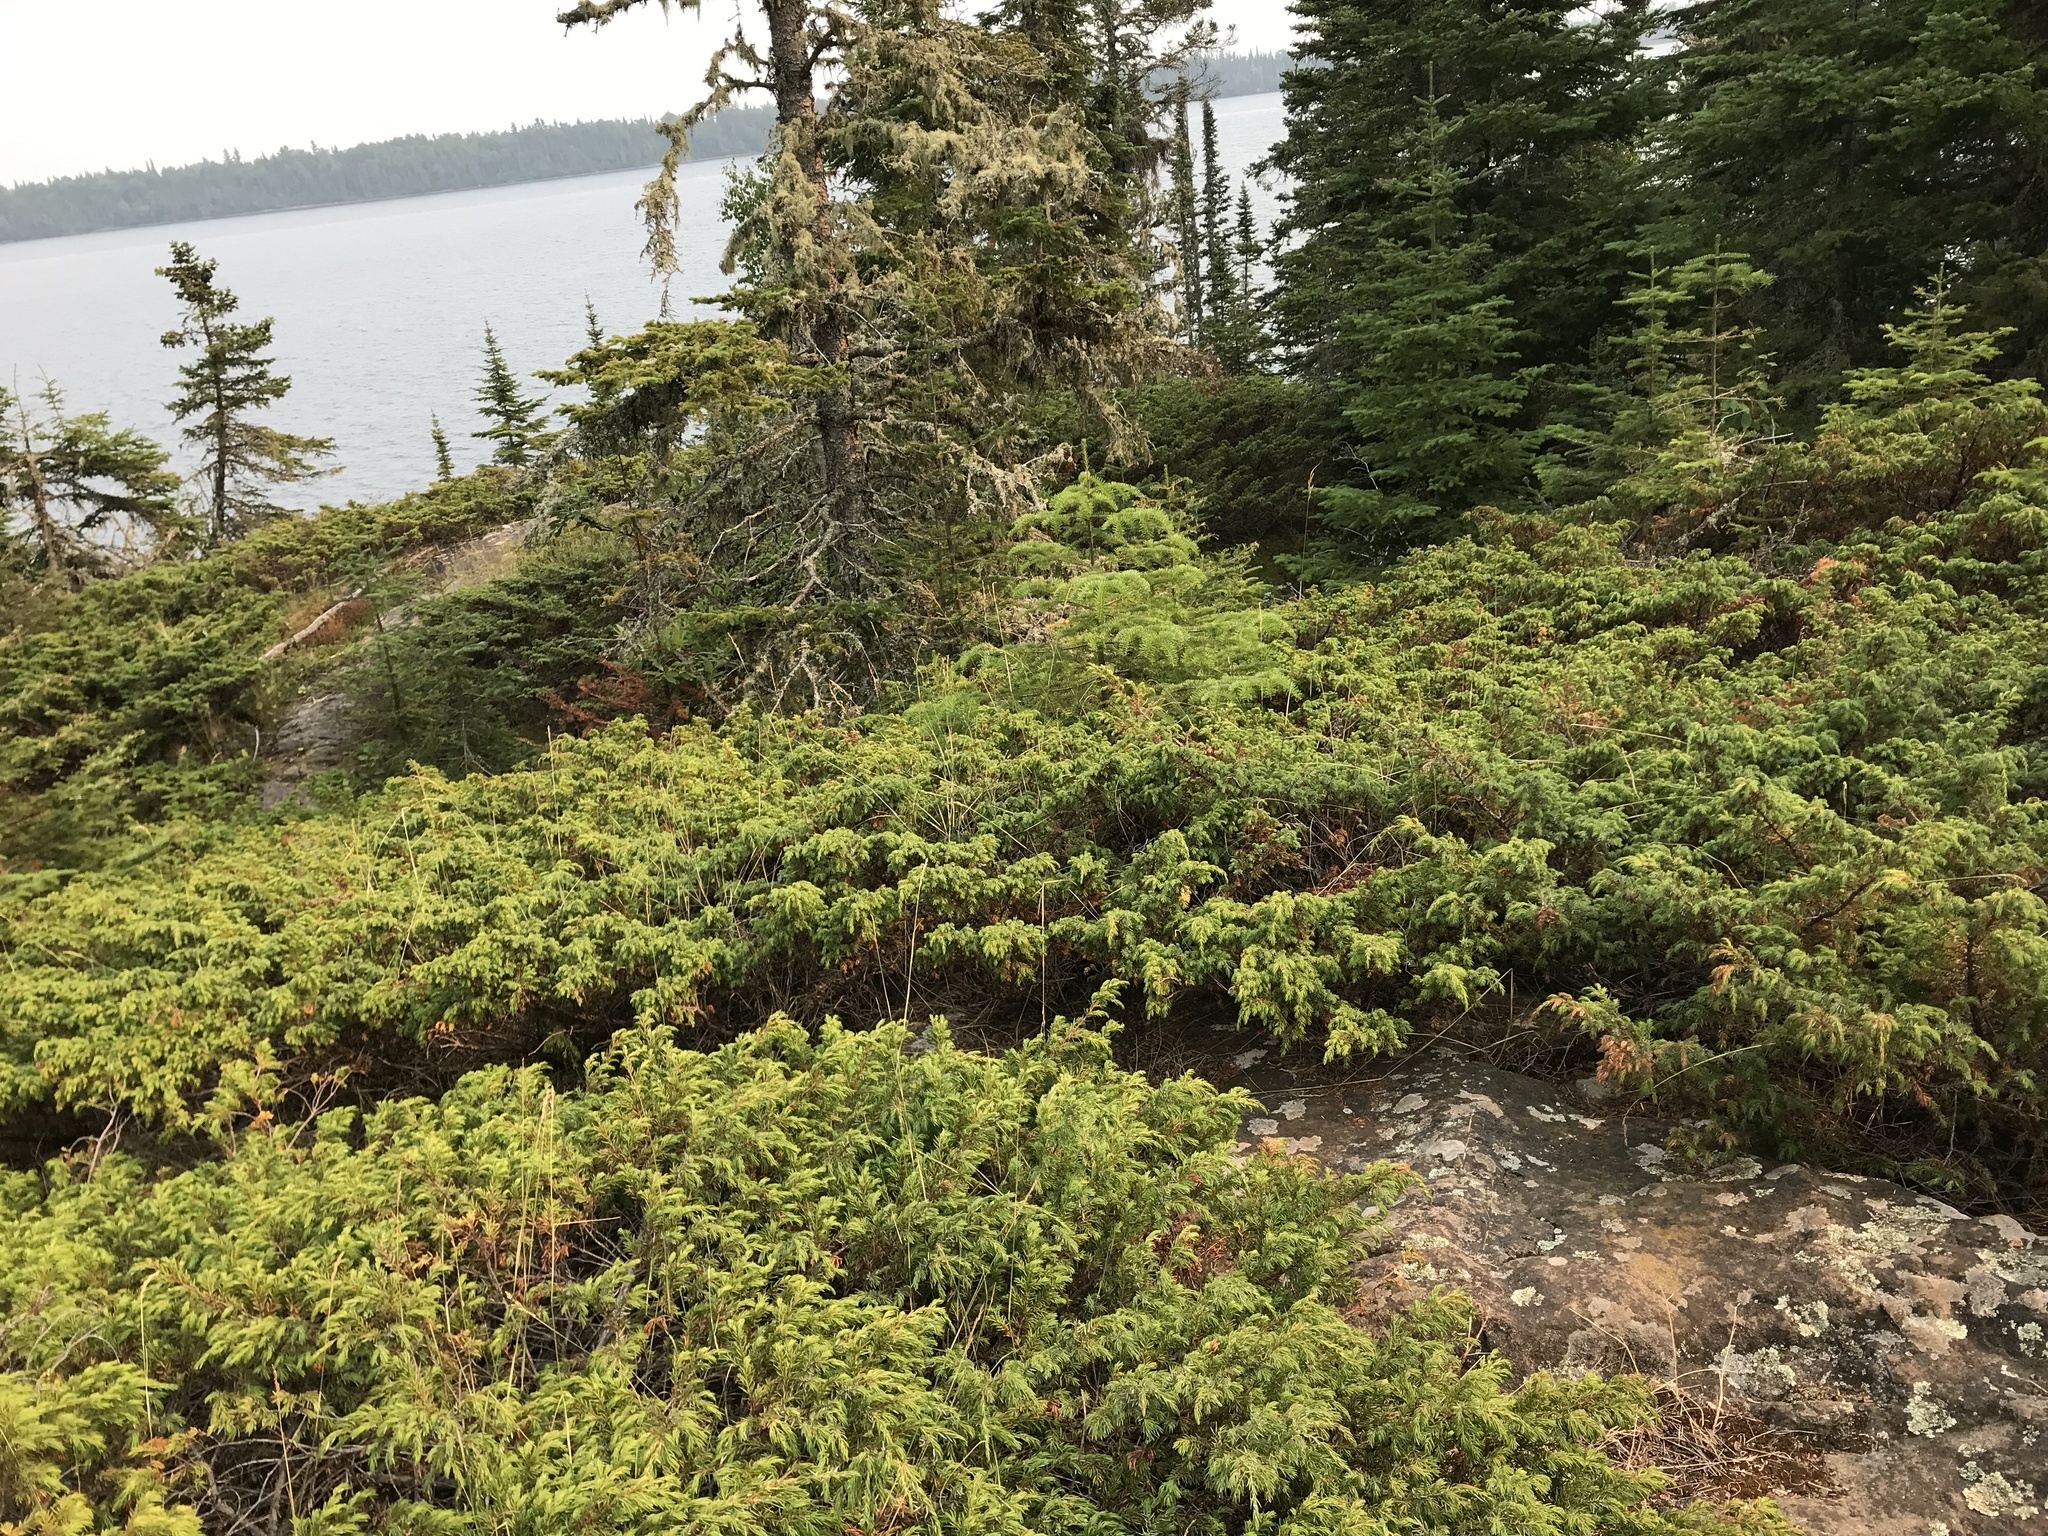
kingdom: Plantae
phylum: Tracheophyta
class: Pinopsida
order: Pinales
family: Cupressaceae
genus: Juniperus
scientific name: Juniperus communis
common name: Common juniper
